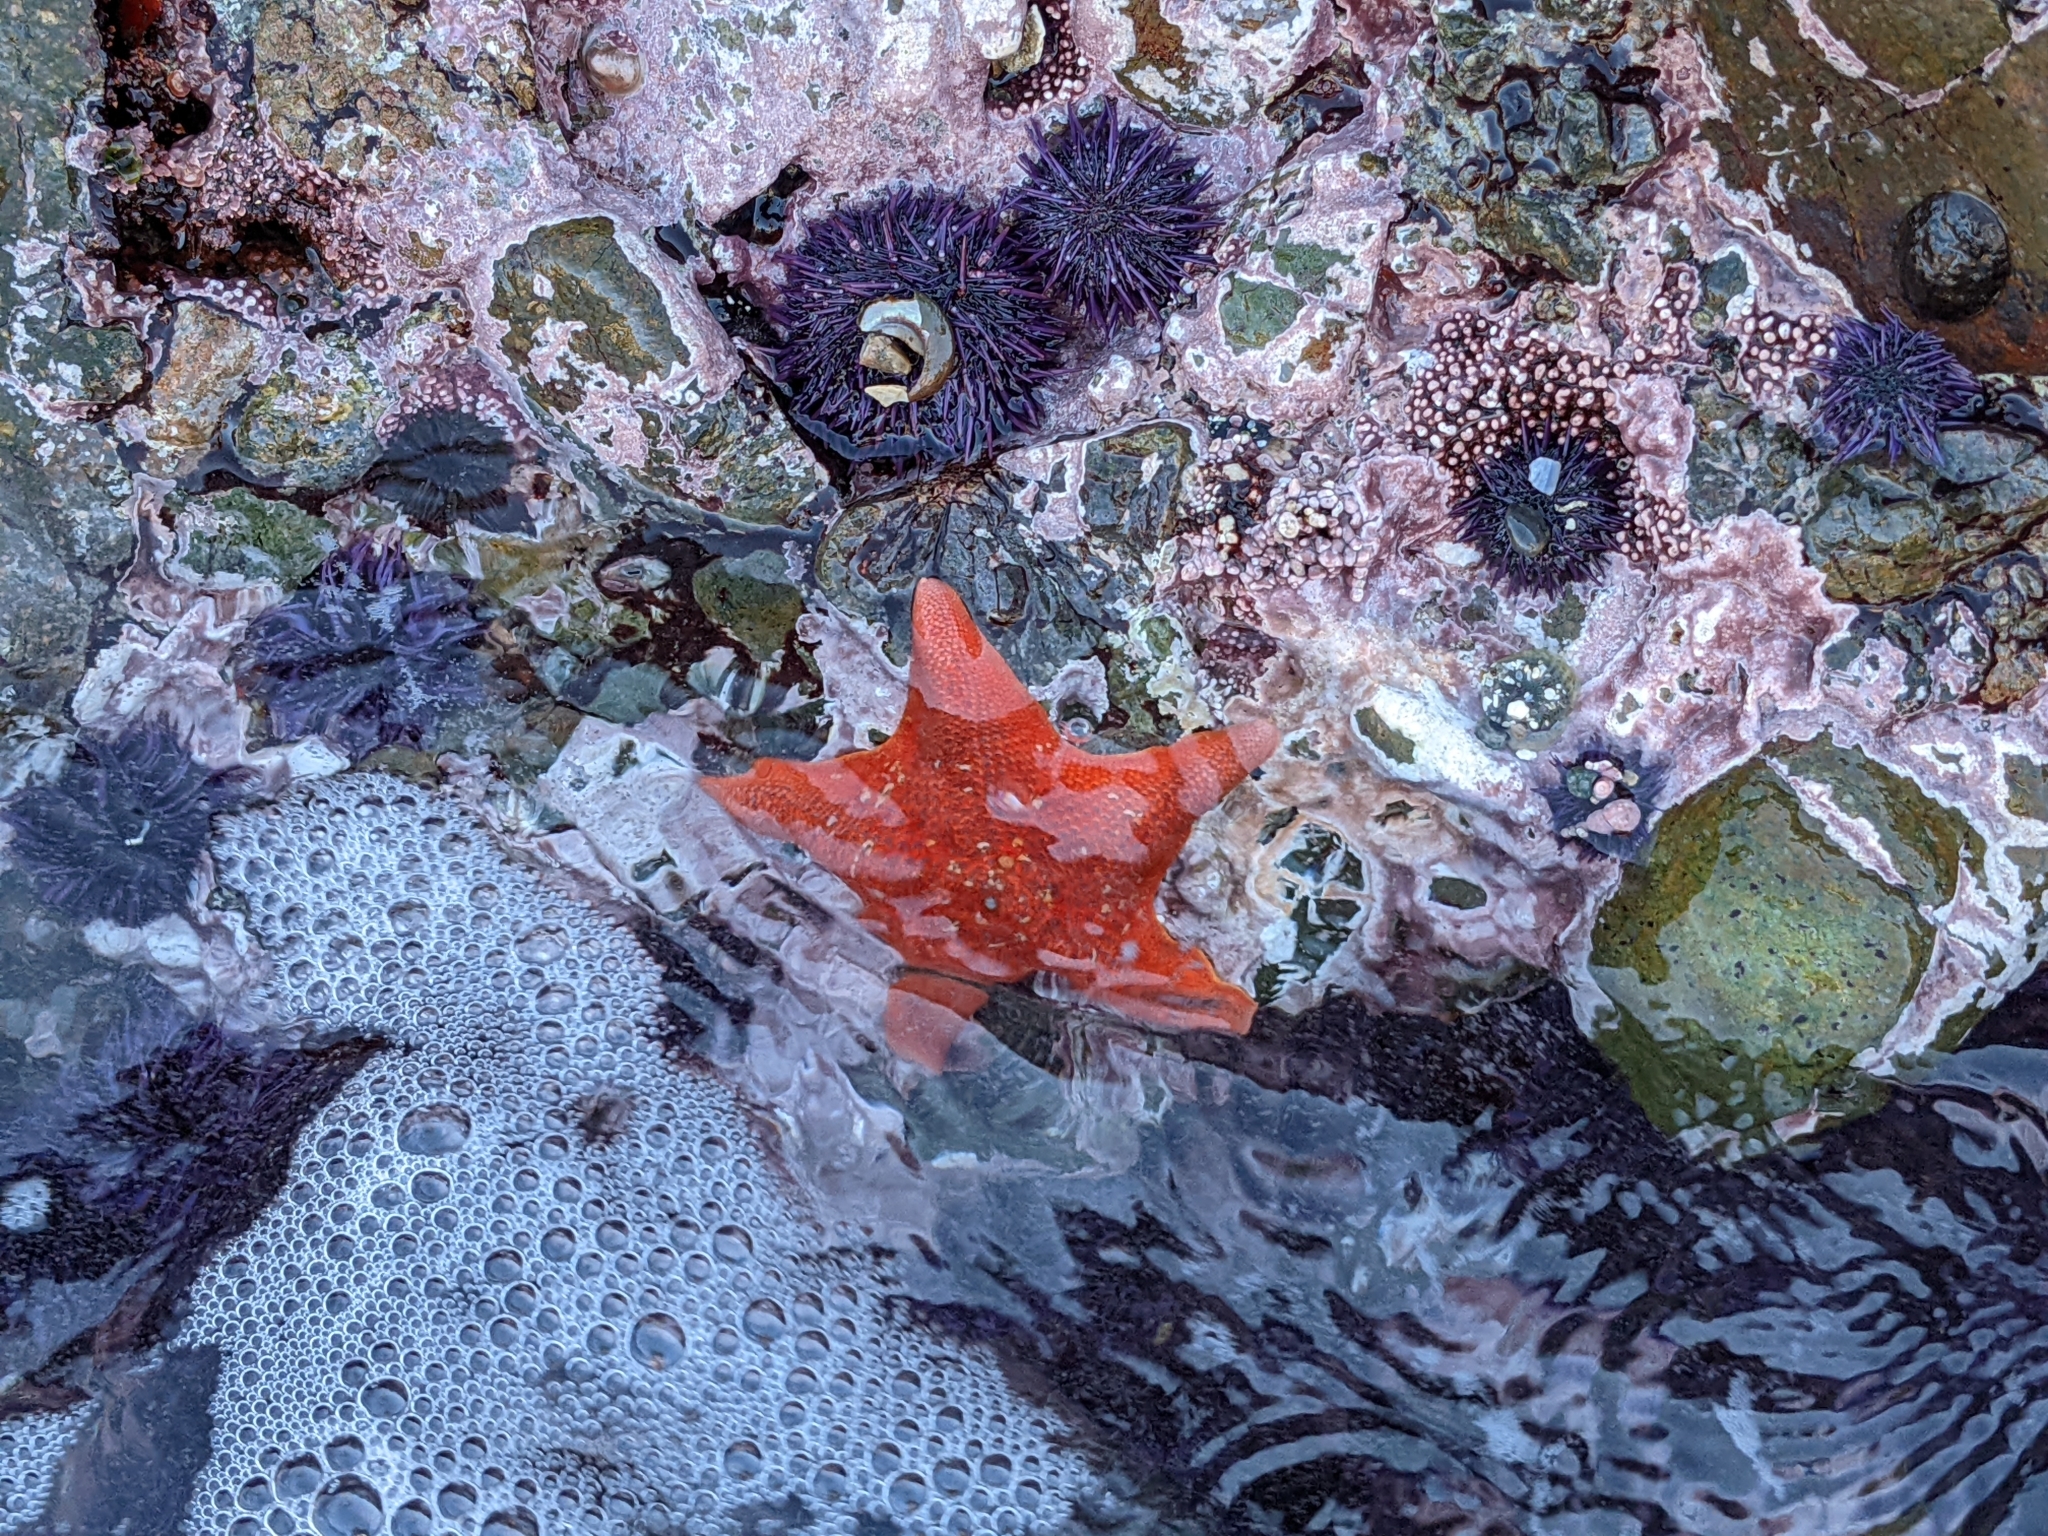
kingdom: Animalia
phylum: Echinodermata
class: Asteroidea
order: Valvatida
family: Asterinidae
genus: Patiria
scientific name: Patiria miniata
